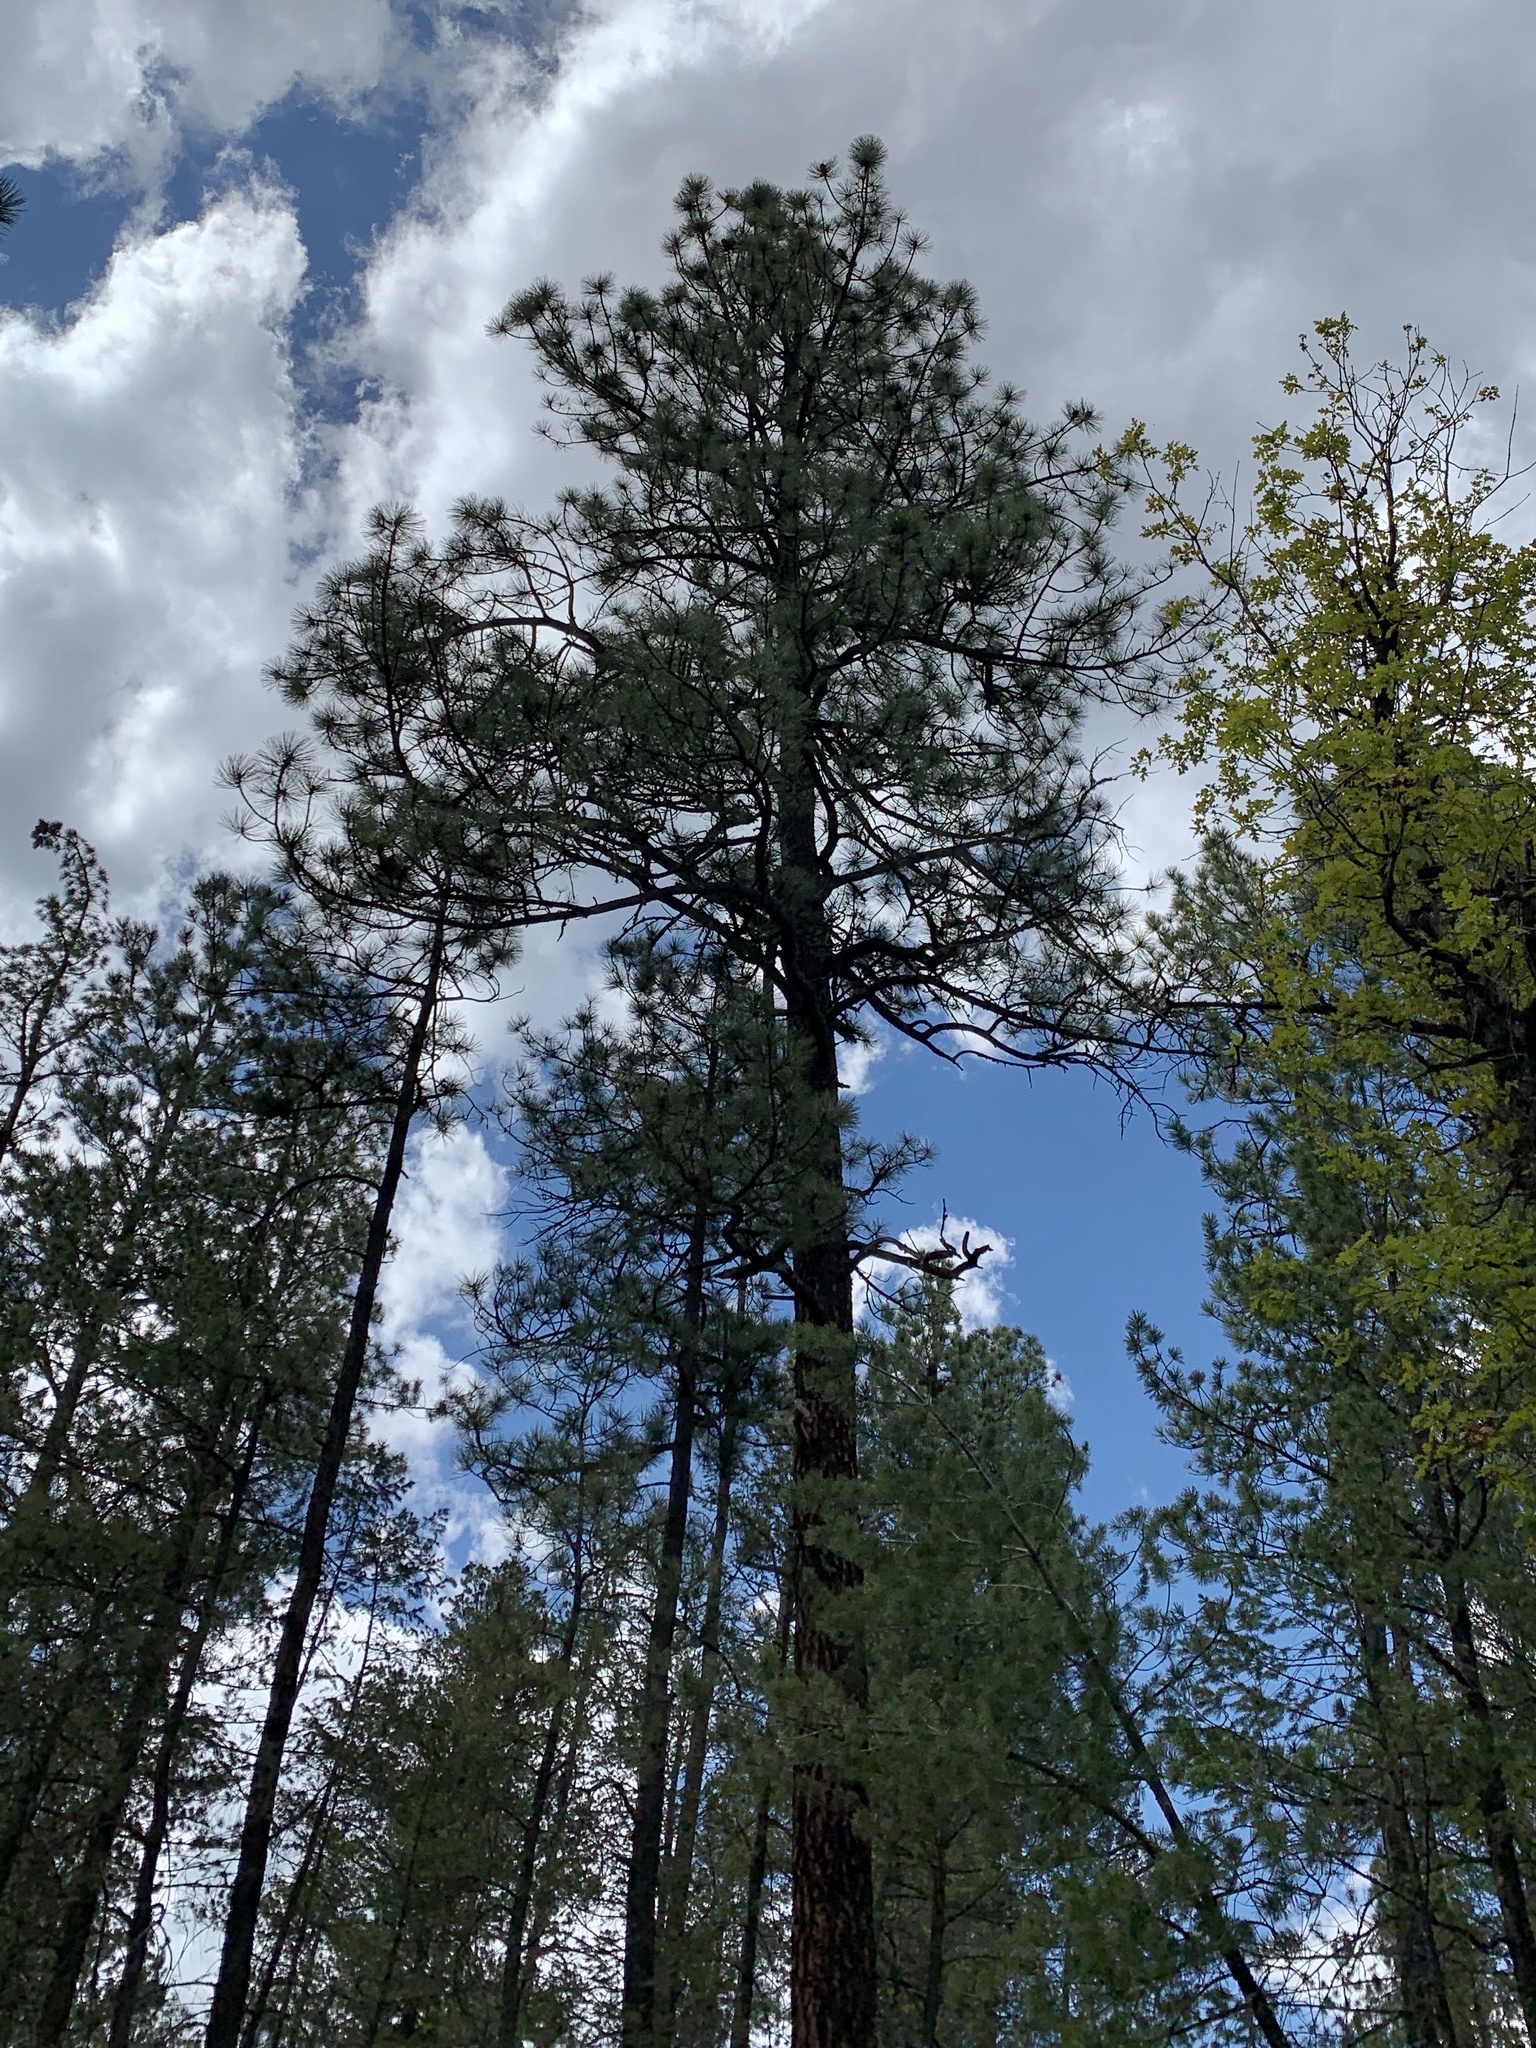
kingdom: Plantae
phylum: Tracheophyta
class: Pinopsida
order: Pinales
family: Pinaceae
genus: Pinus
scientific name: Pinus ponderosa
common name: Western yellow-pine
